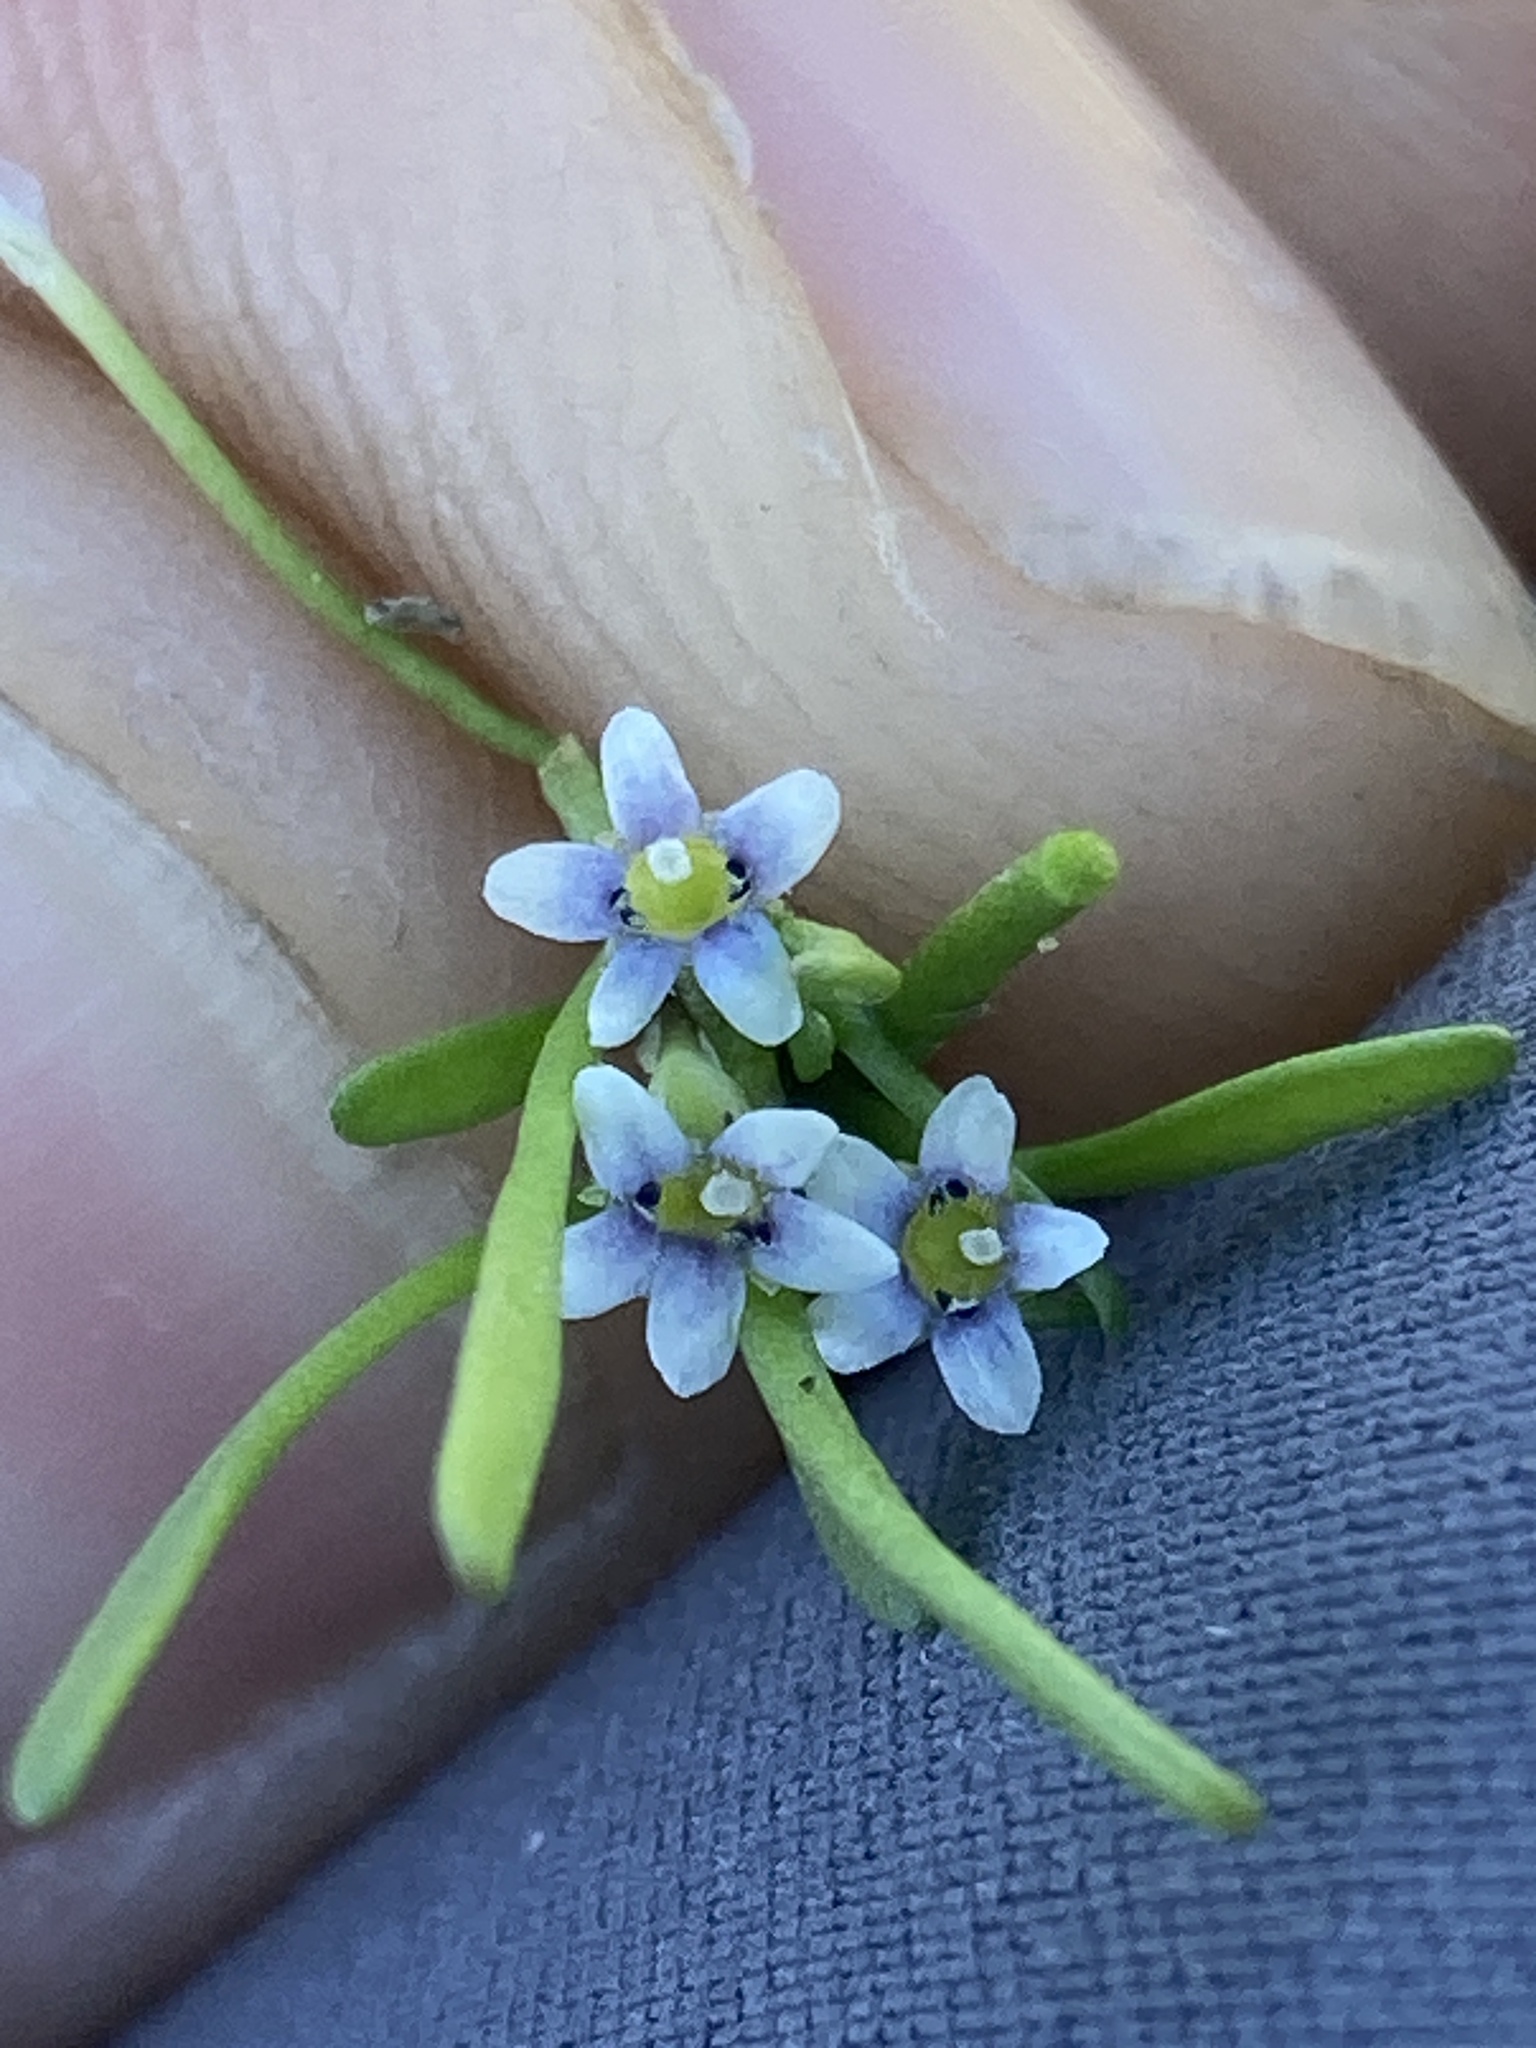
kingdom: Plantae
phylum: Tracheophyta
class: Magnoliopsida
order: Lamiales
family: Scrophulariaceae
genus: Limosella
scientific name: Limosella acaulis
